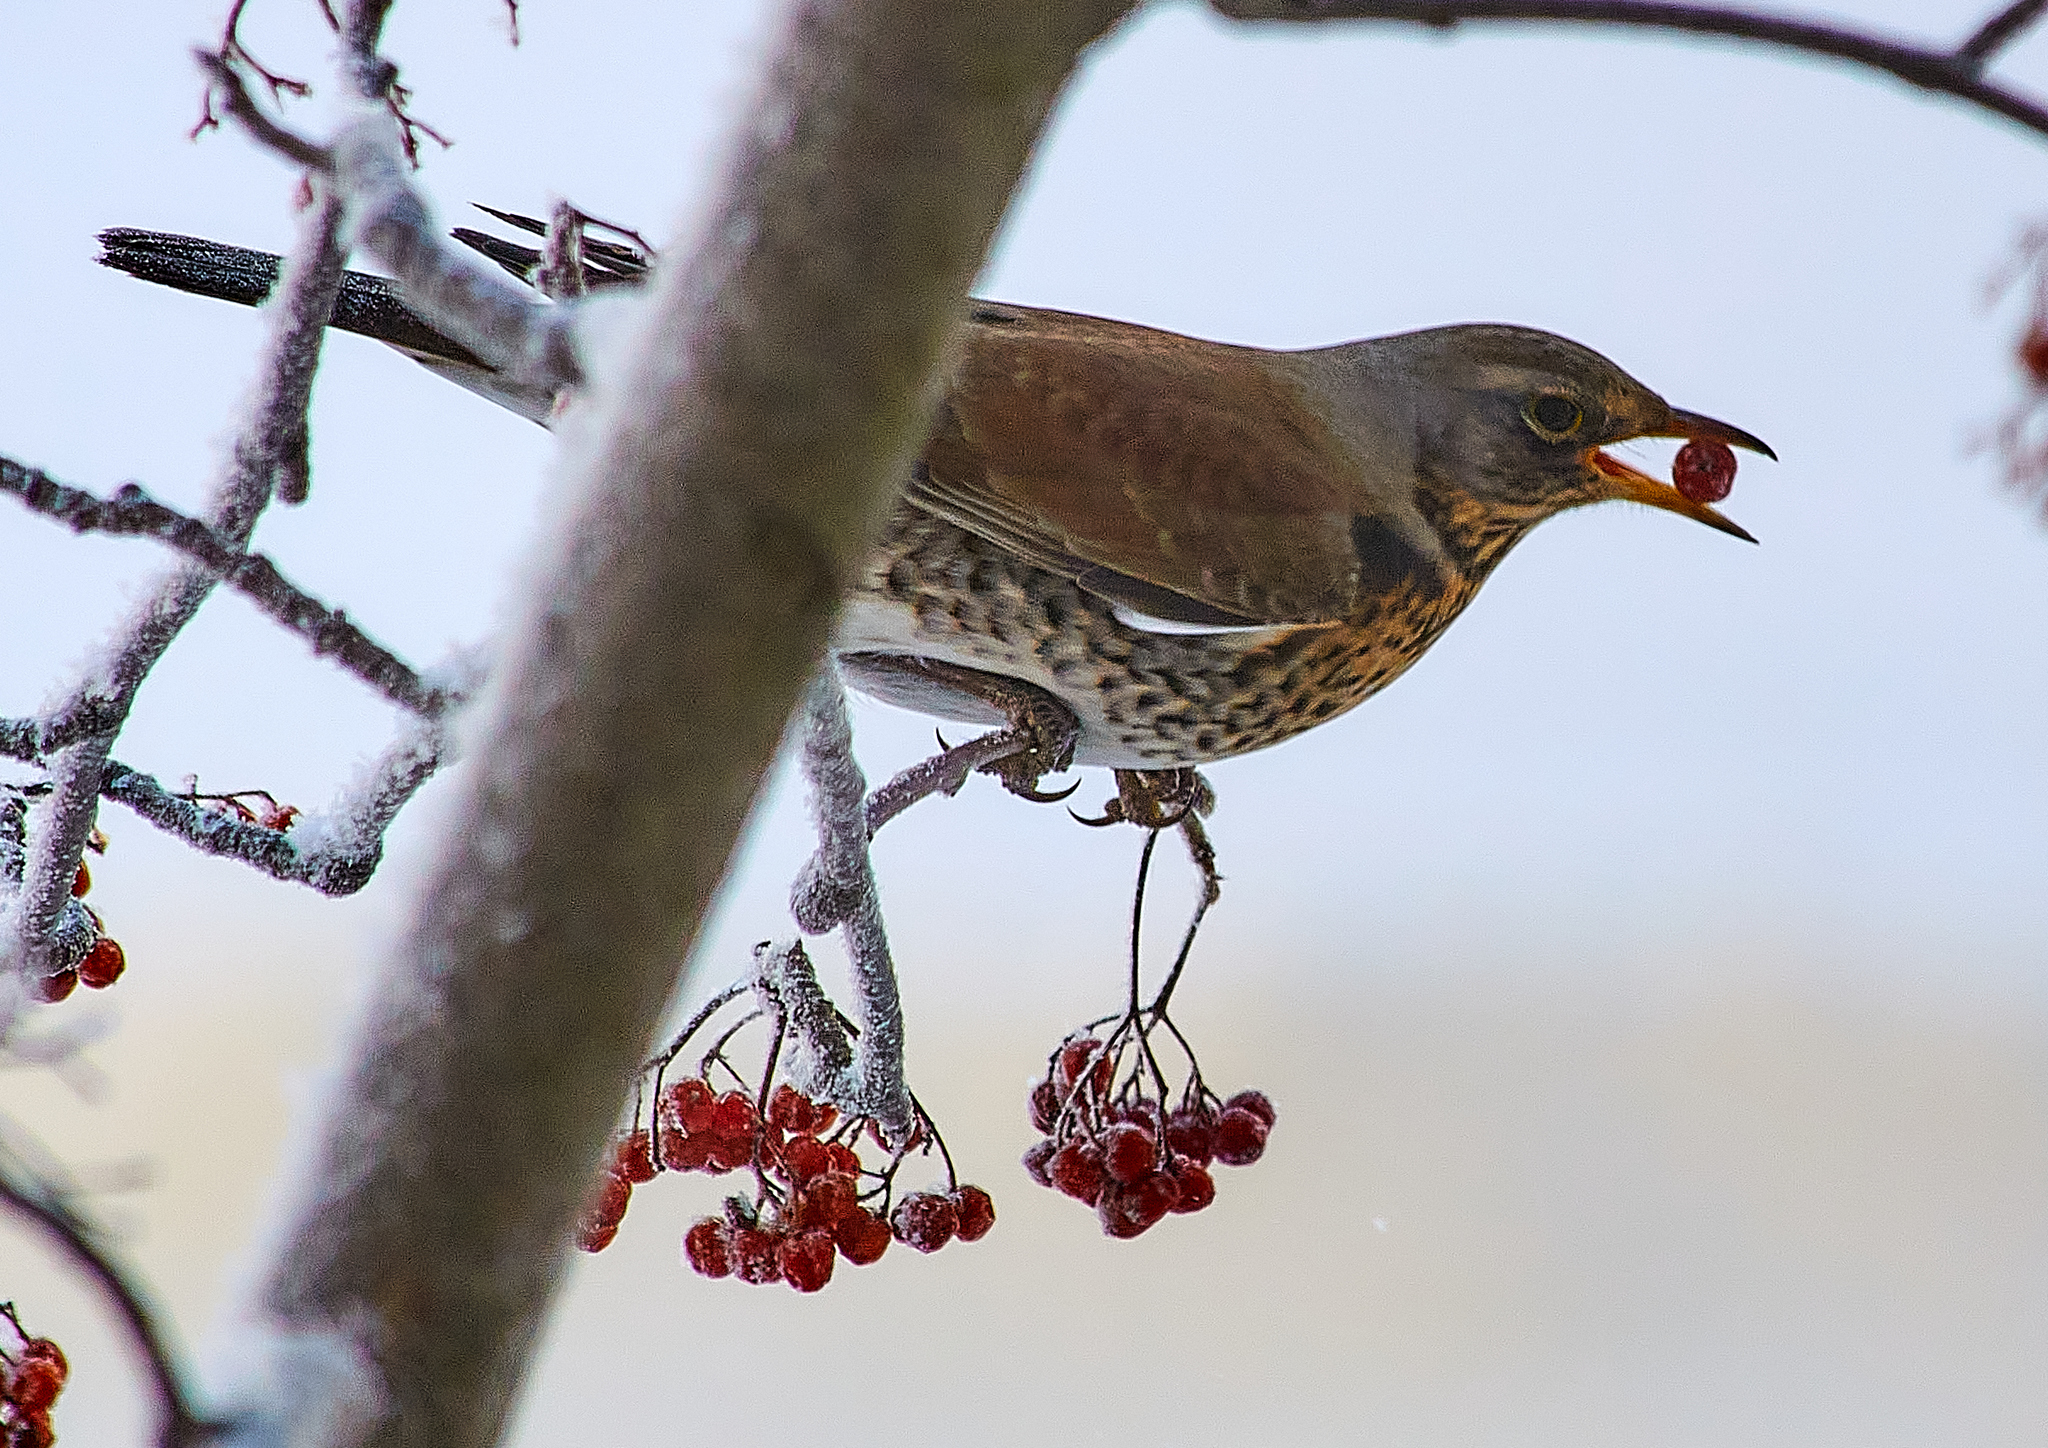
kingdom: Animalia
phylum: Chordata
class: Aves
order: Passeriformes
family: Turdidae
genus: Turdus
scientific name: Turdus pilaris
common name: Fieldfare
